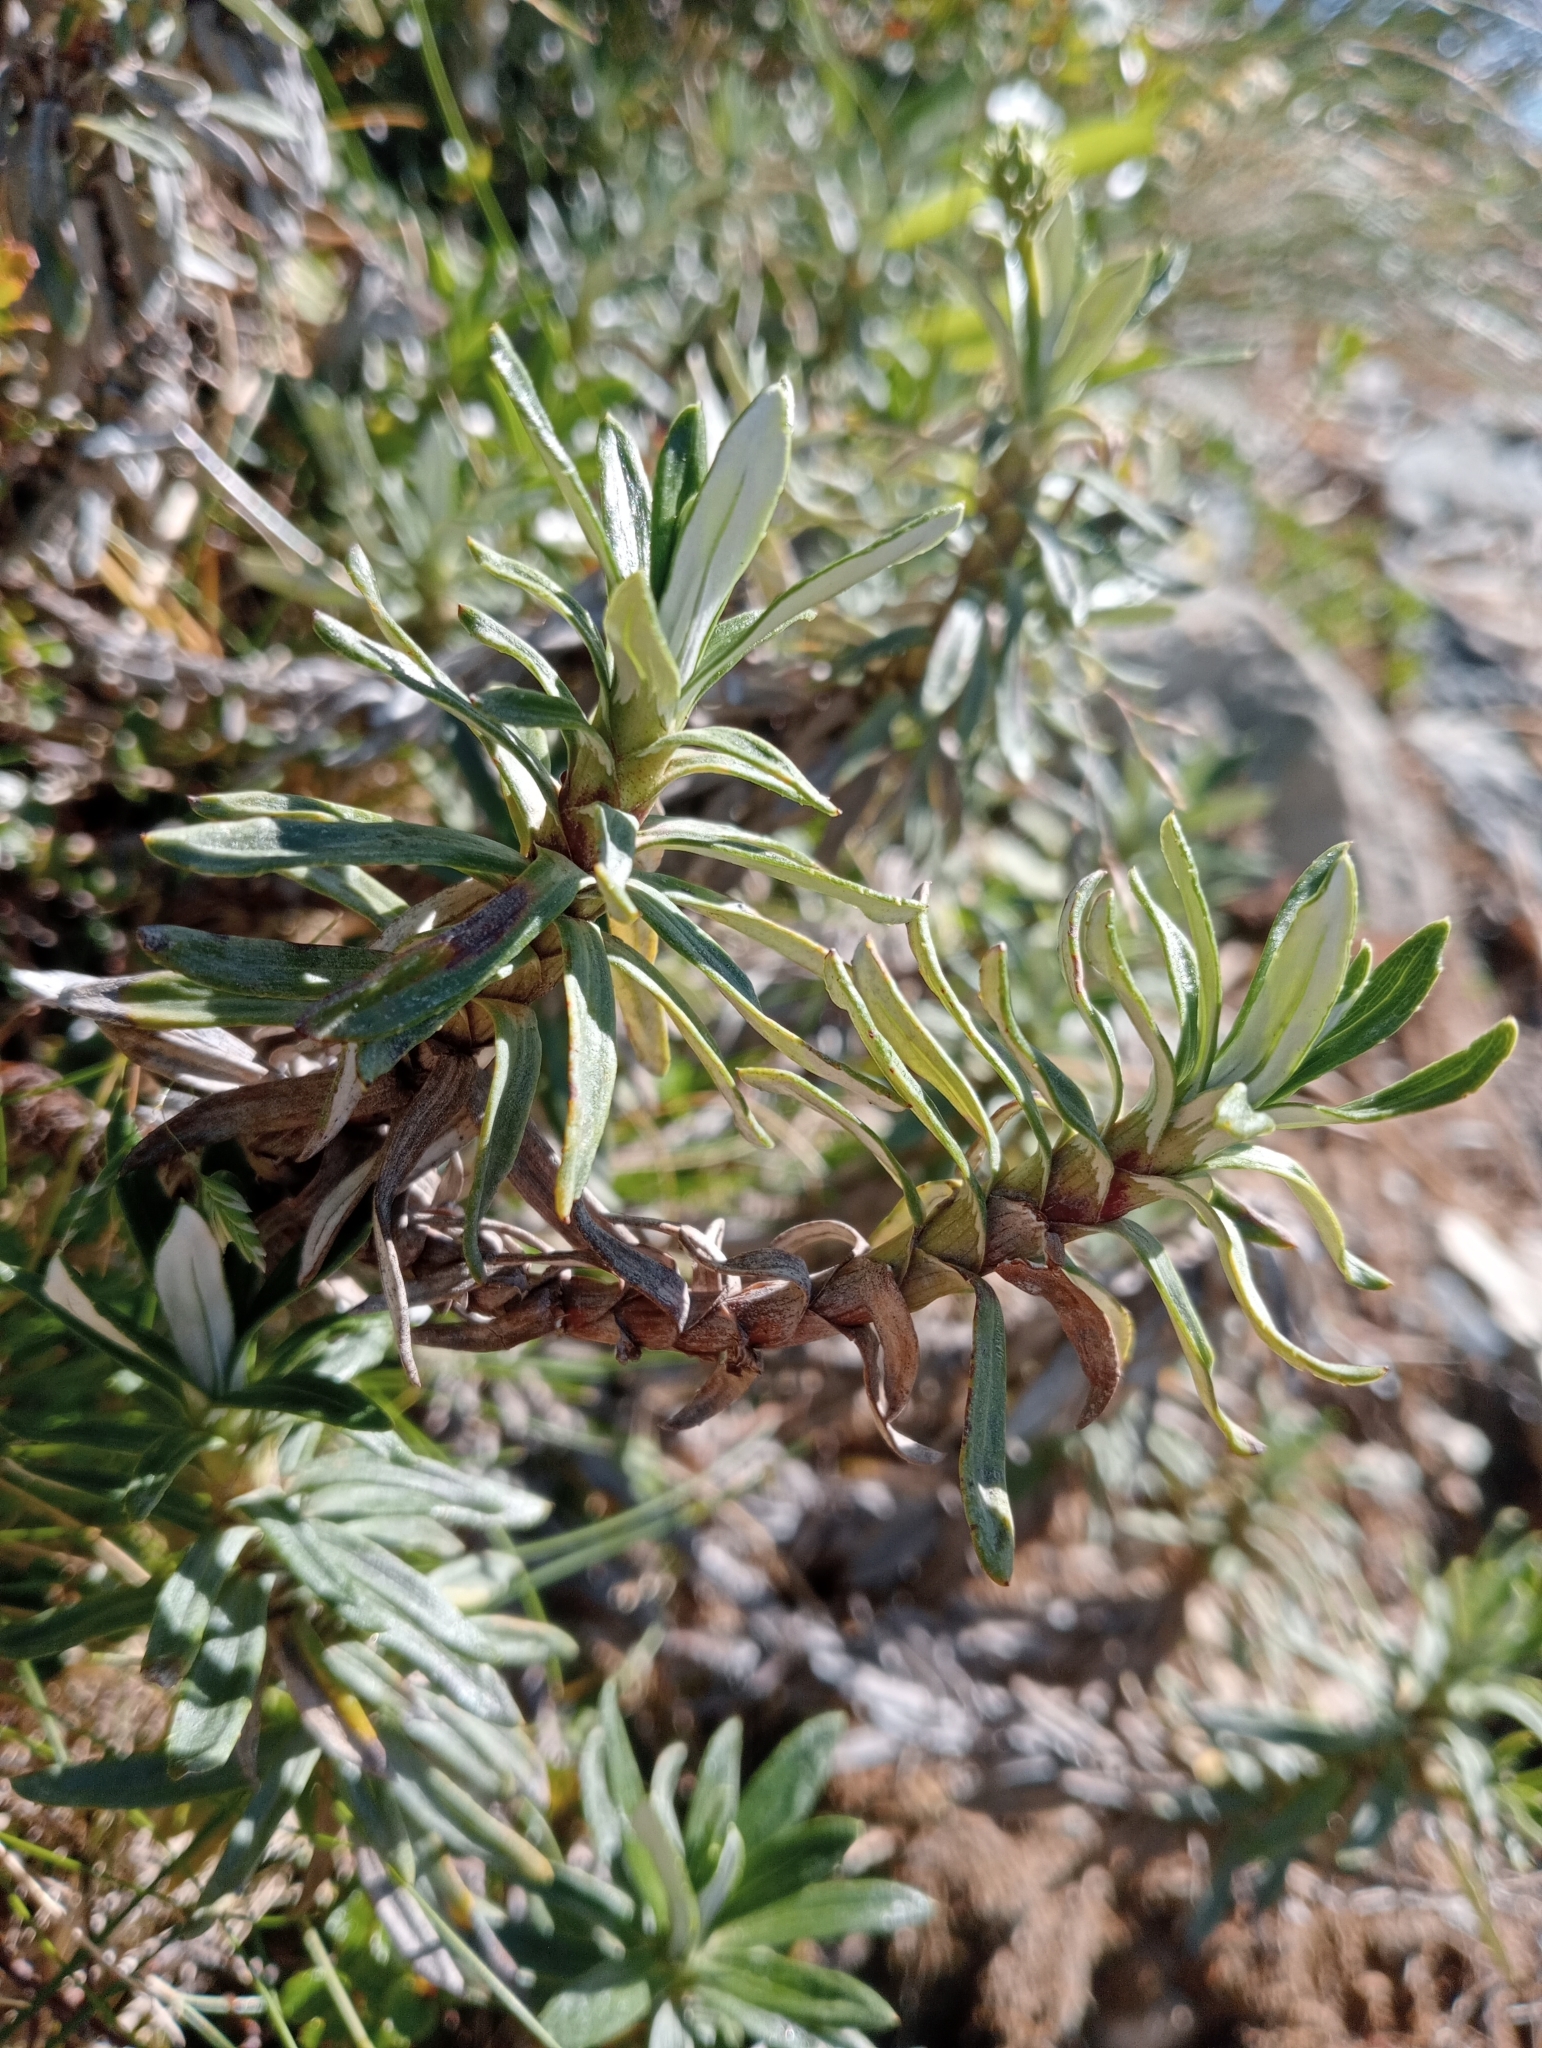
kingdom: Plantae
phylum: Tracheophyta
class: Magnoliopsida
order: Asterales
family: Asteraceae
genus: Celmisia
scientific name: Celmisia walkeri
